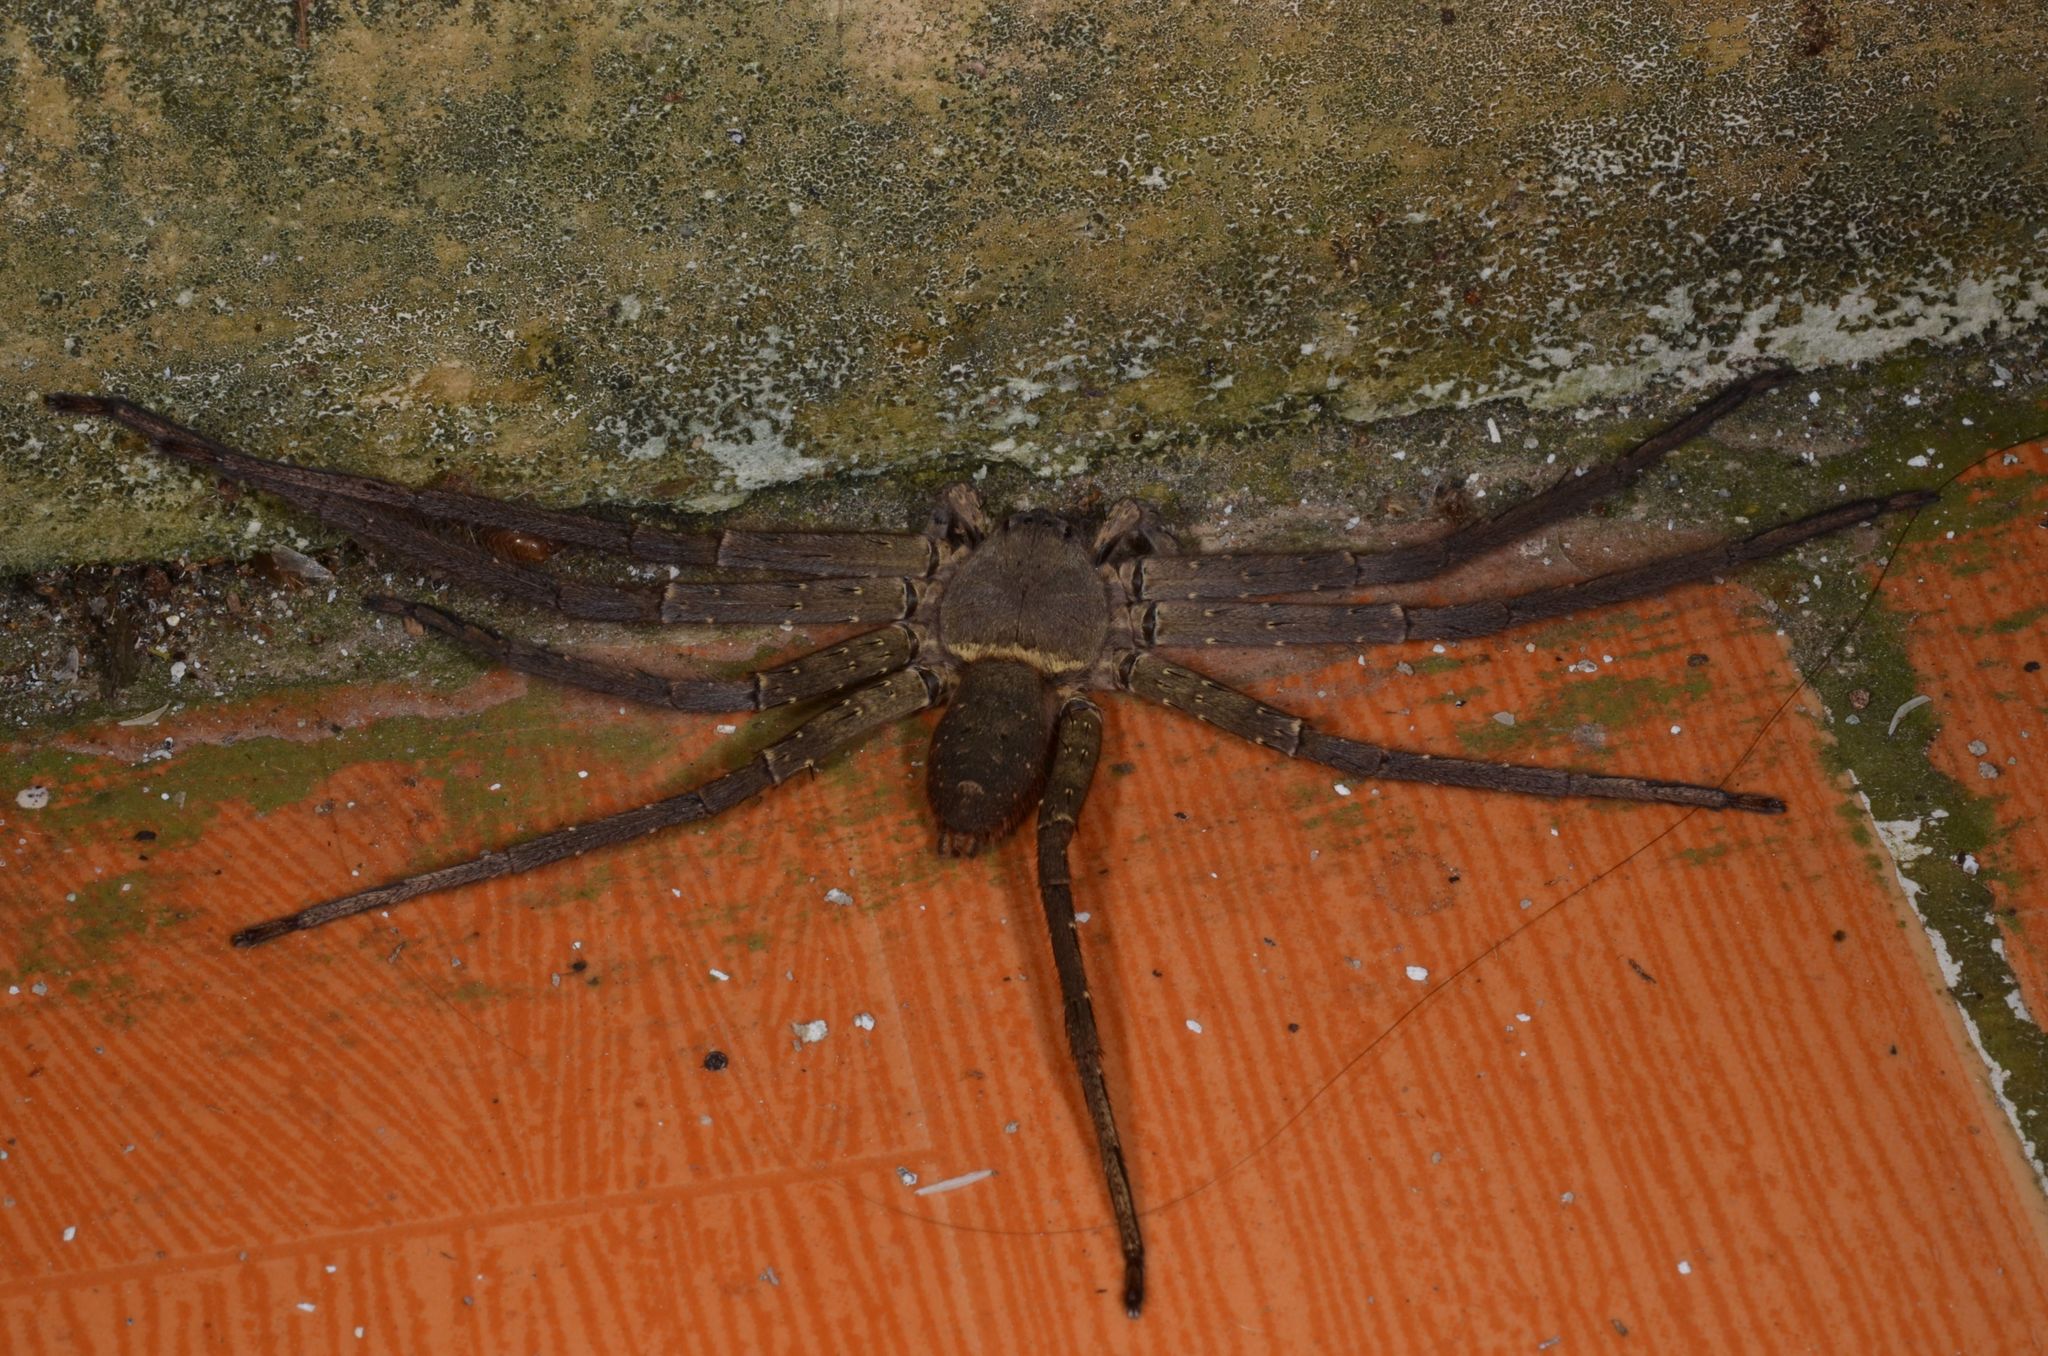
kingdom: Animalia
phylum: Arthropoda
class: Arachnida
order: Araneae
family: Sparassidae
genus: Heteropoda
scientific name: Heteropoda venatoria
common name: Huntsman spider
